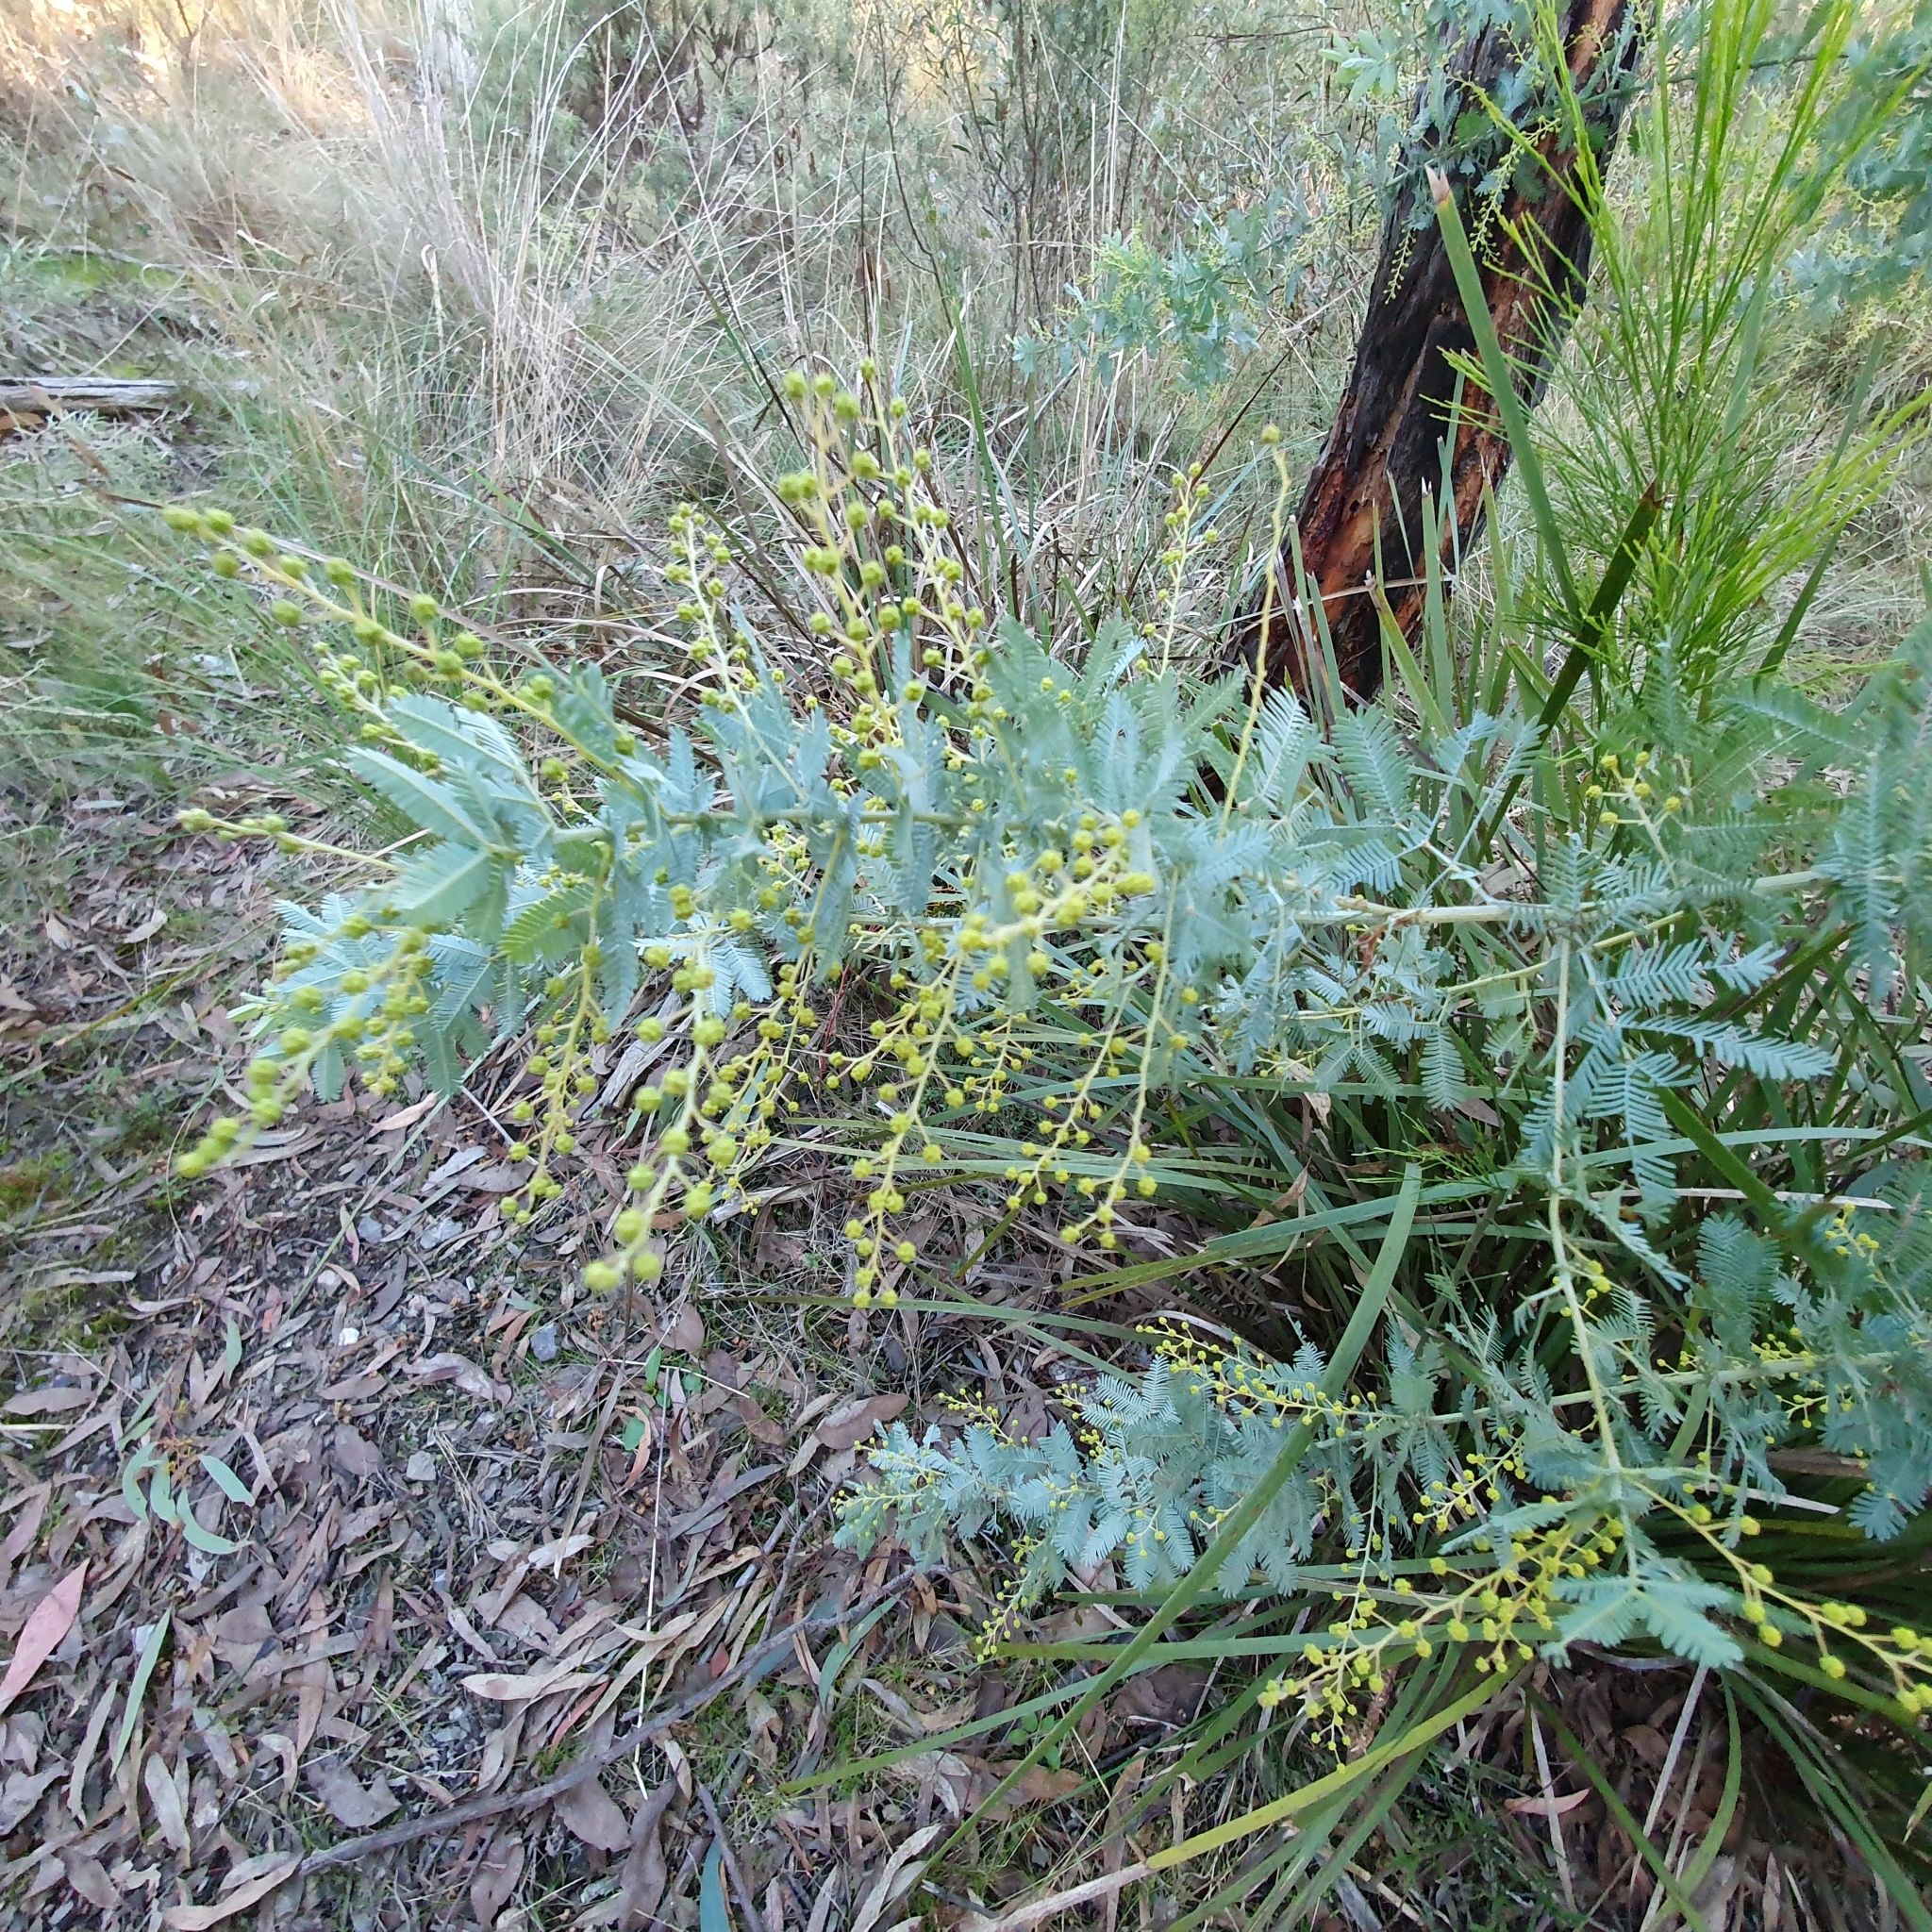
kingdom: Plantae
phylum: Tracheophyta
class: Magnoliopsida
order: Fabales
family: Fabaceae
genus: Acacia
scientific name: Acacia baileyana
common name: Cootamundra wattle
